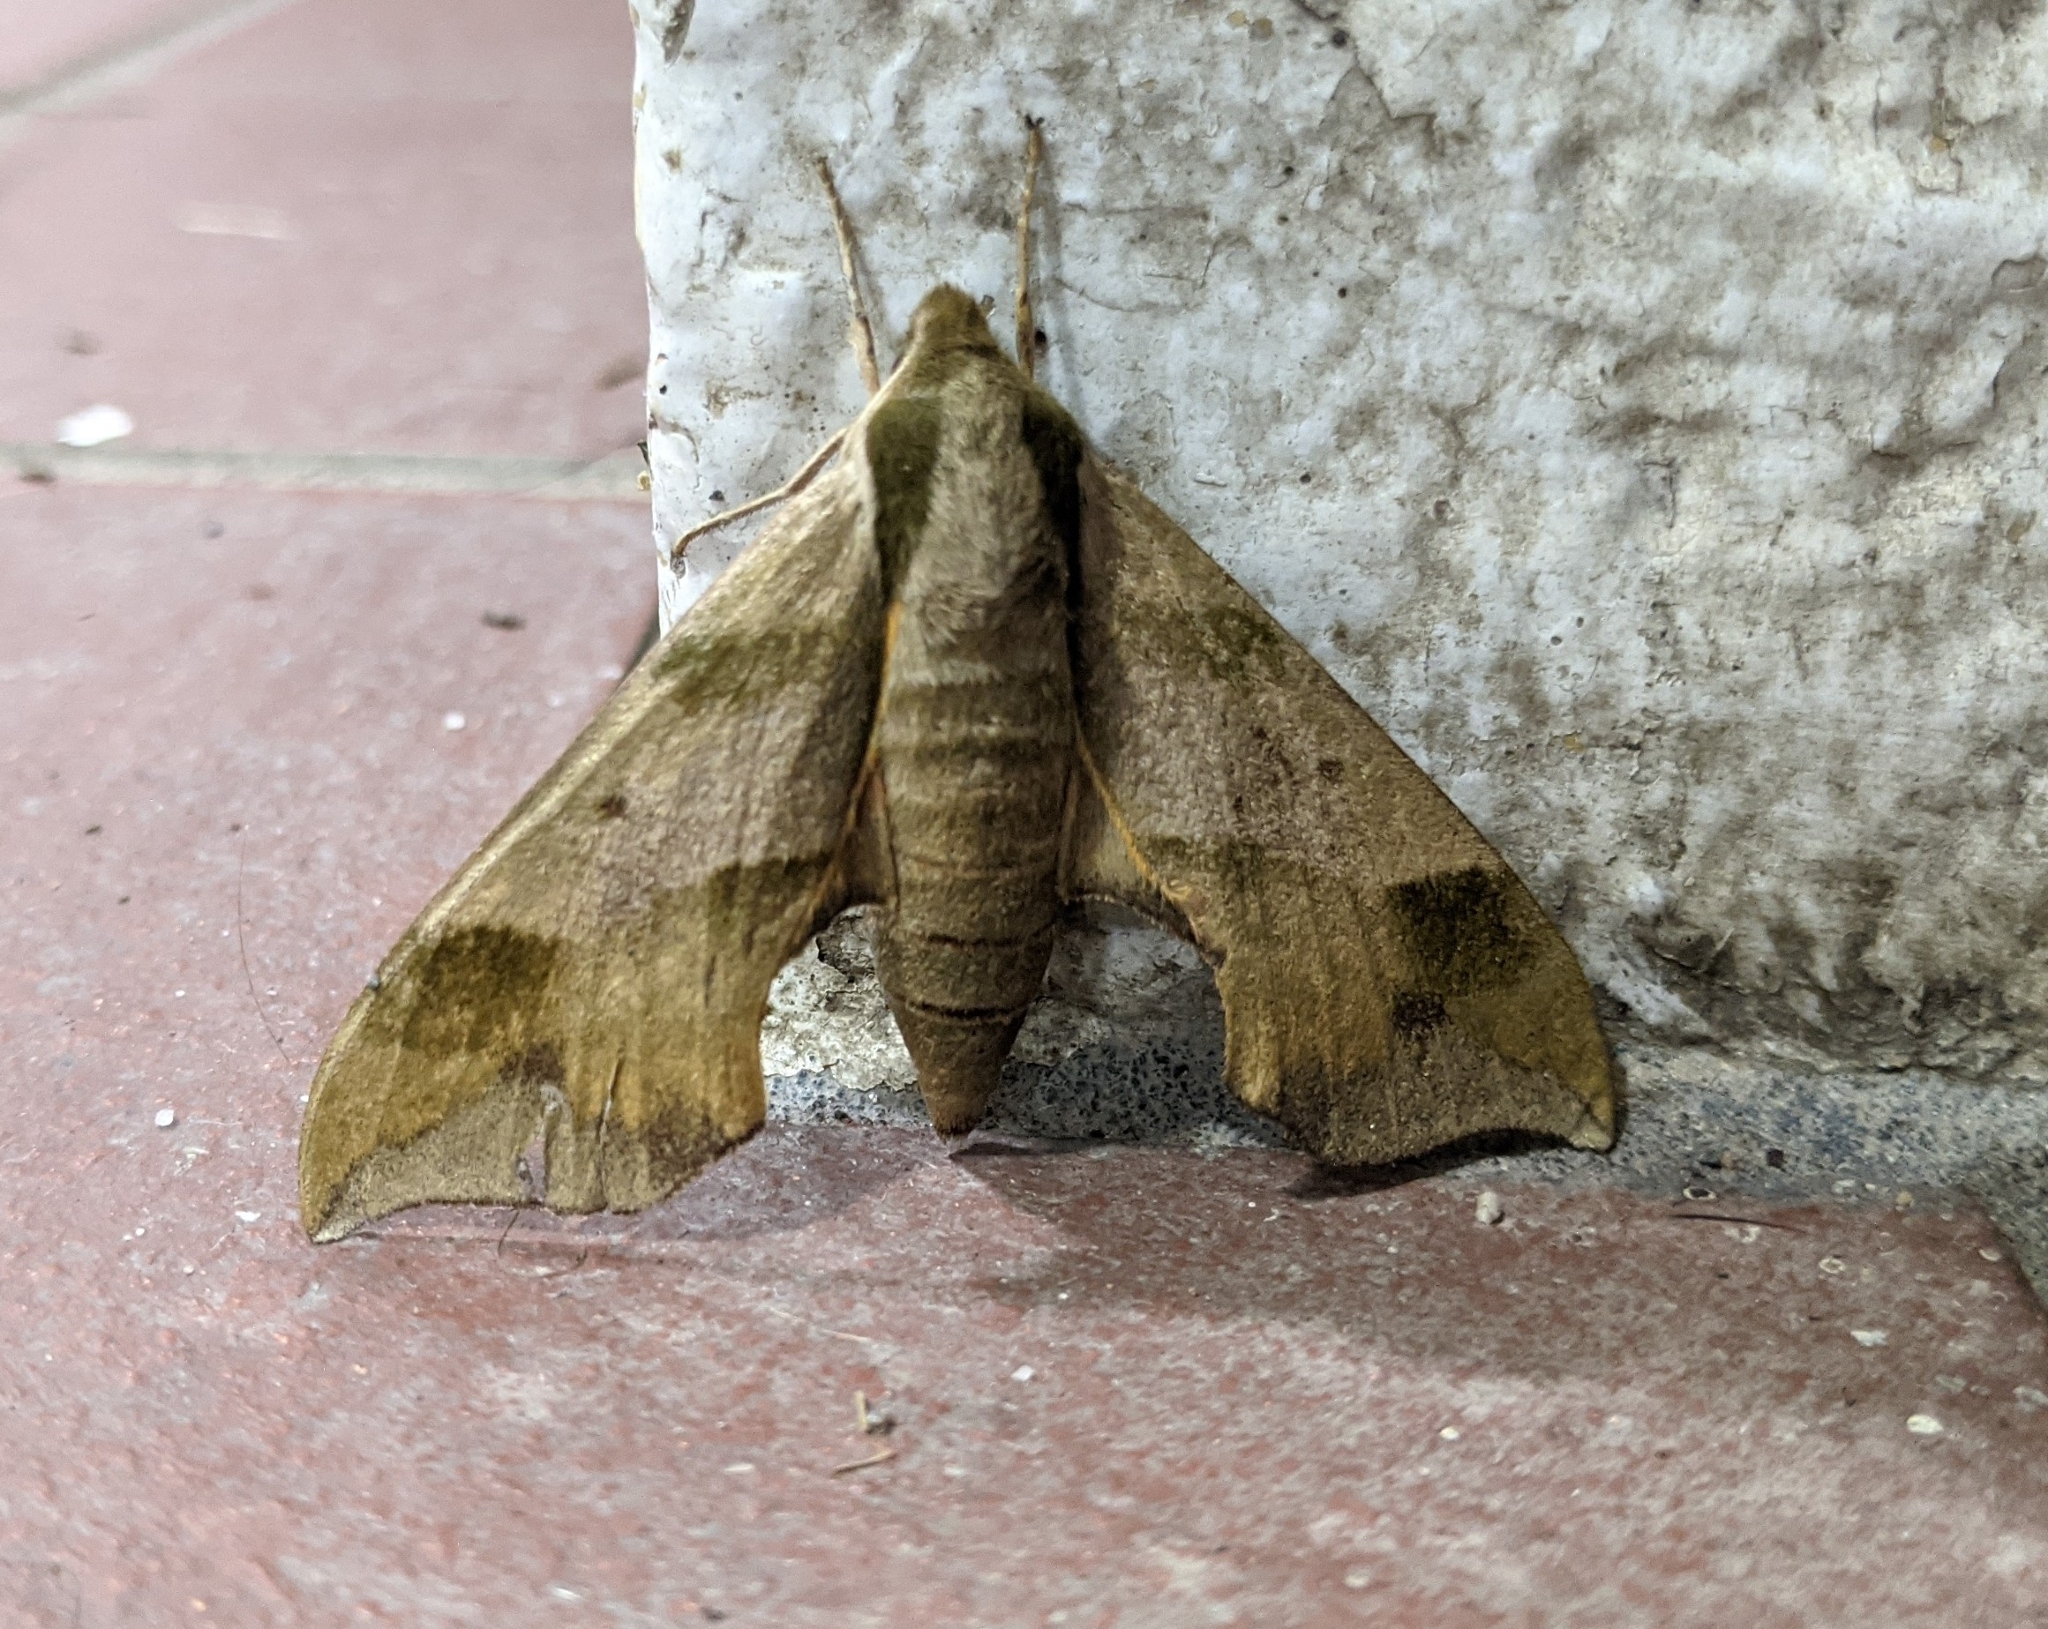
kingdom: Animalia
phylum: Arthropoda
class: Insecta
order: Lepidoptera
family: Sphingidae
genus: Darapsa
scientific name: Darapsa myron
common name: Hog sphinx
